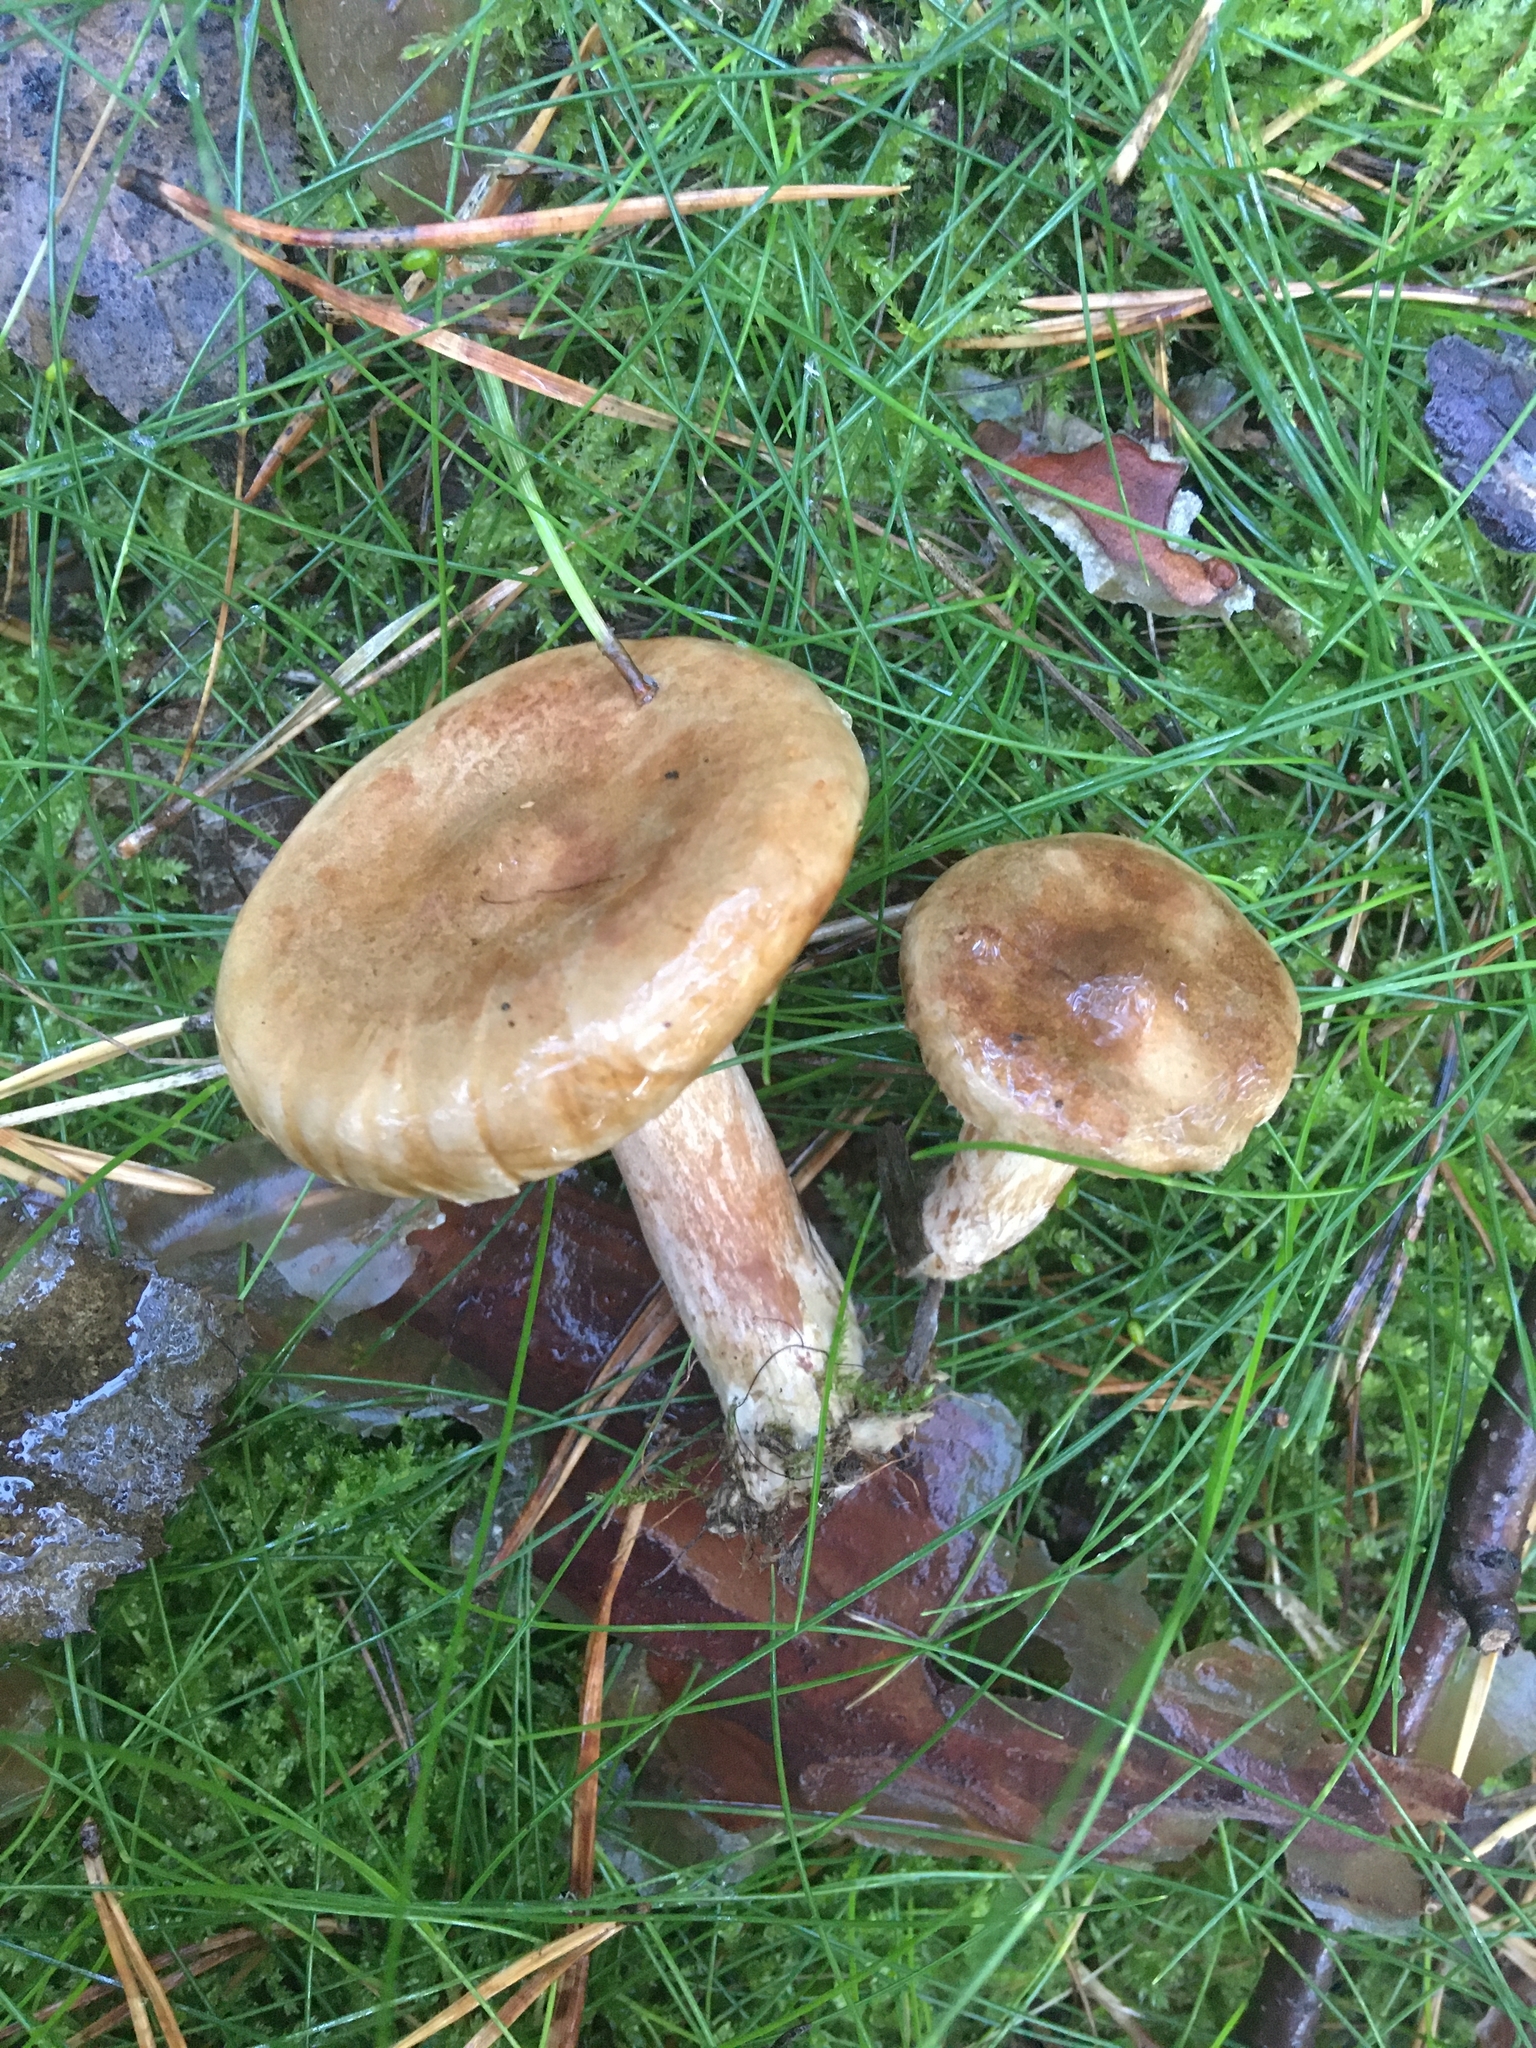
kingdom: Fungi
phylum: Basidiomycota
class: Agaricomycetes
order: Boletales
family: Paxillaceae
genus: Paxillus
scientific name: Paxillus involutus
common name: Brown roll rim
